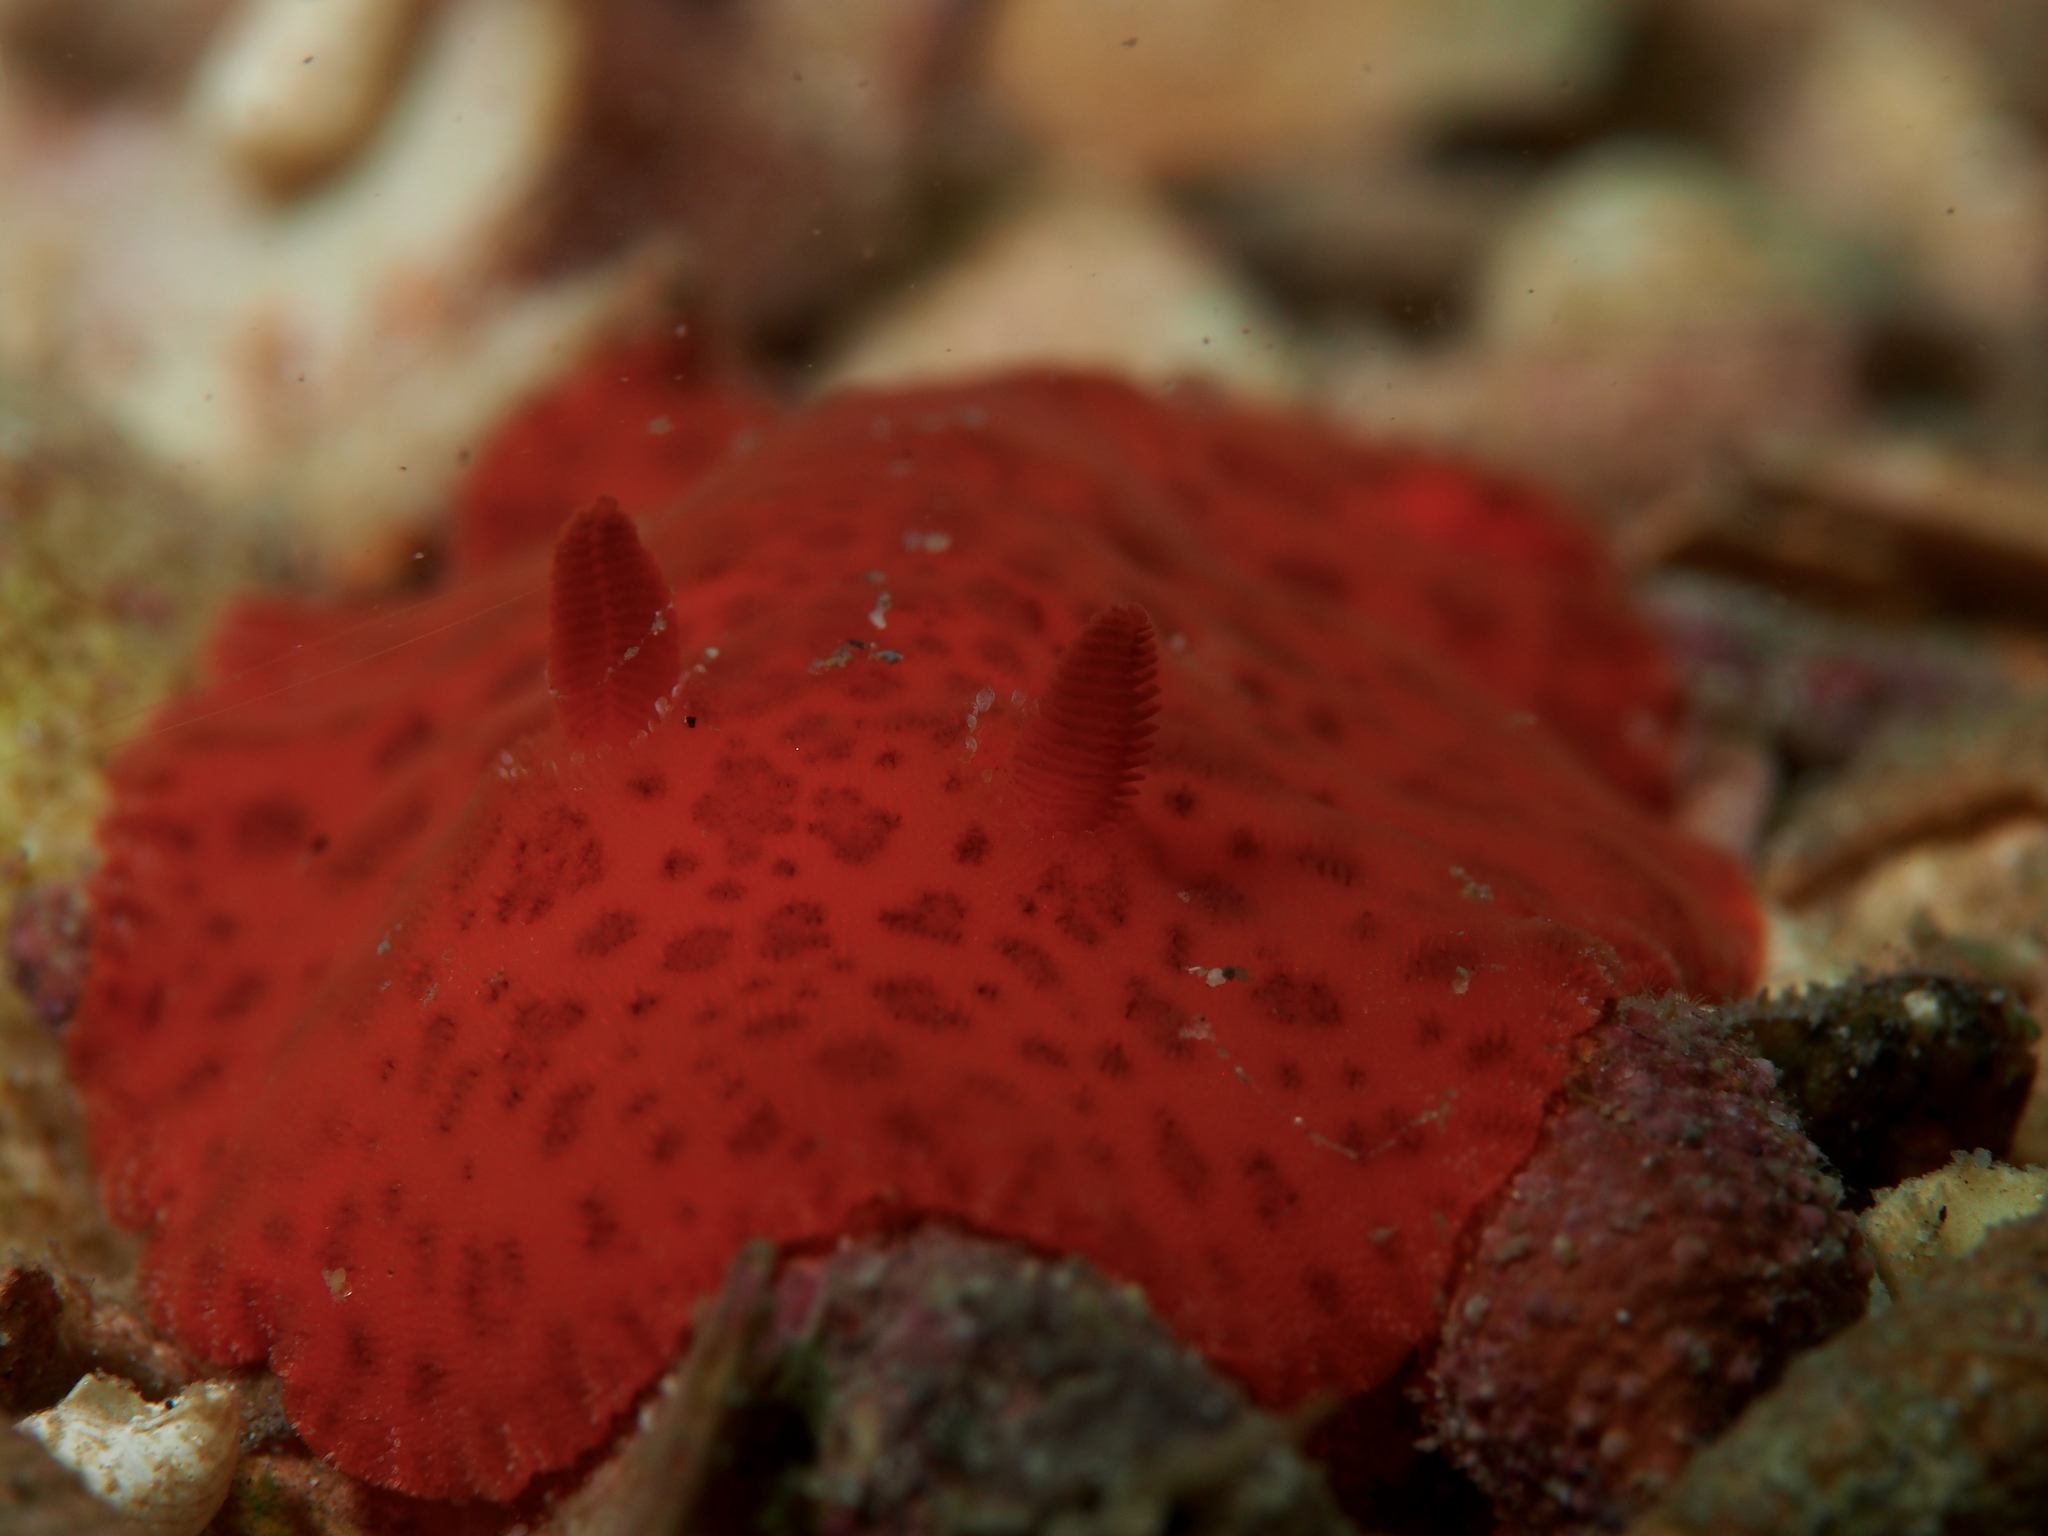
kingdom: Animalia
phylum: Mollusca
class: Gastropoda
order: Nudibranchia
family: Discodorididae
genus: Discodoris
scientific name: Discodoris paroa
